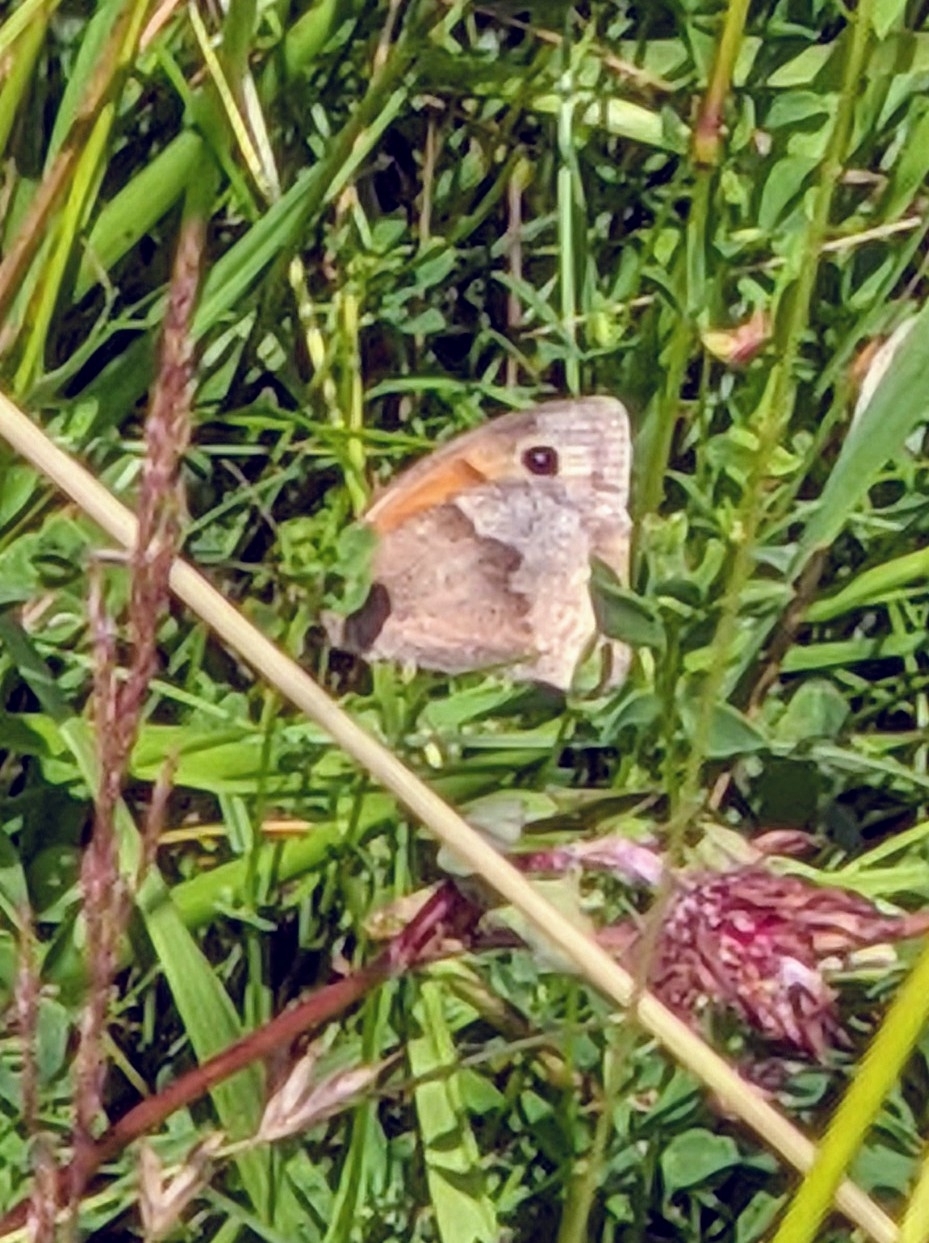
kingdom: Animalia
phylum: Arthropoda
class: Insecta
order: Lepidoptera
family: Nymphalidae
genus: Maniola
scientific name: Maniola jurtina
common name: Meadow brown
